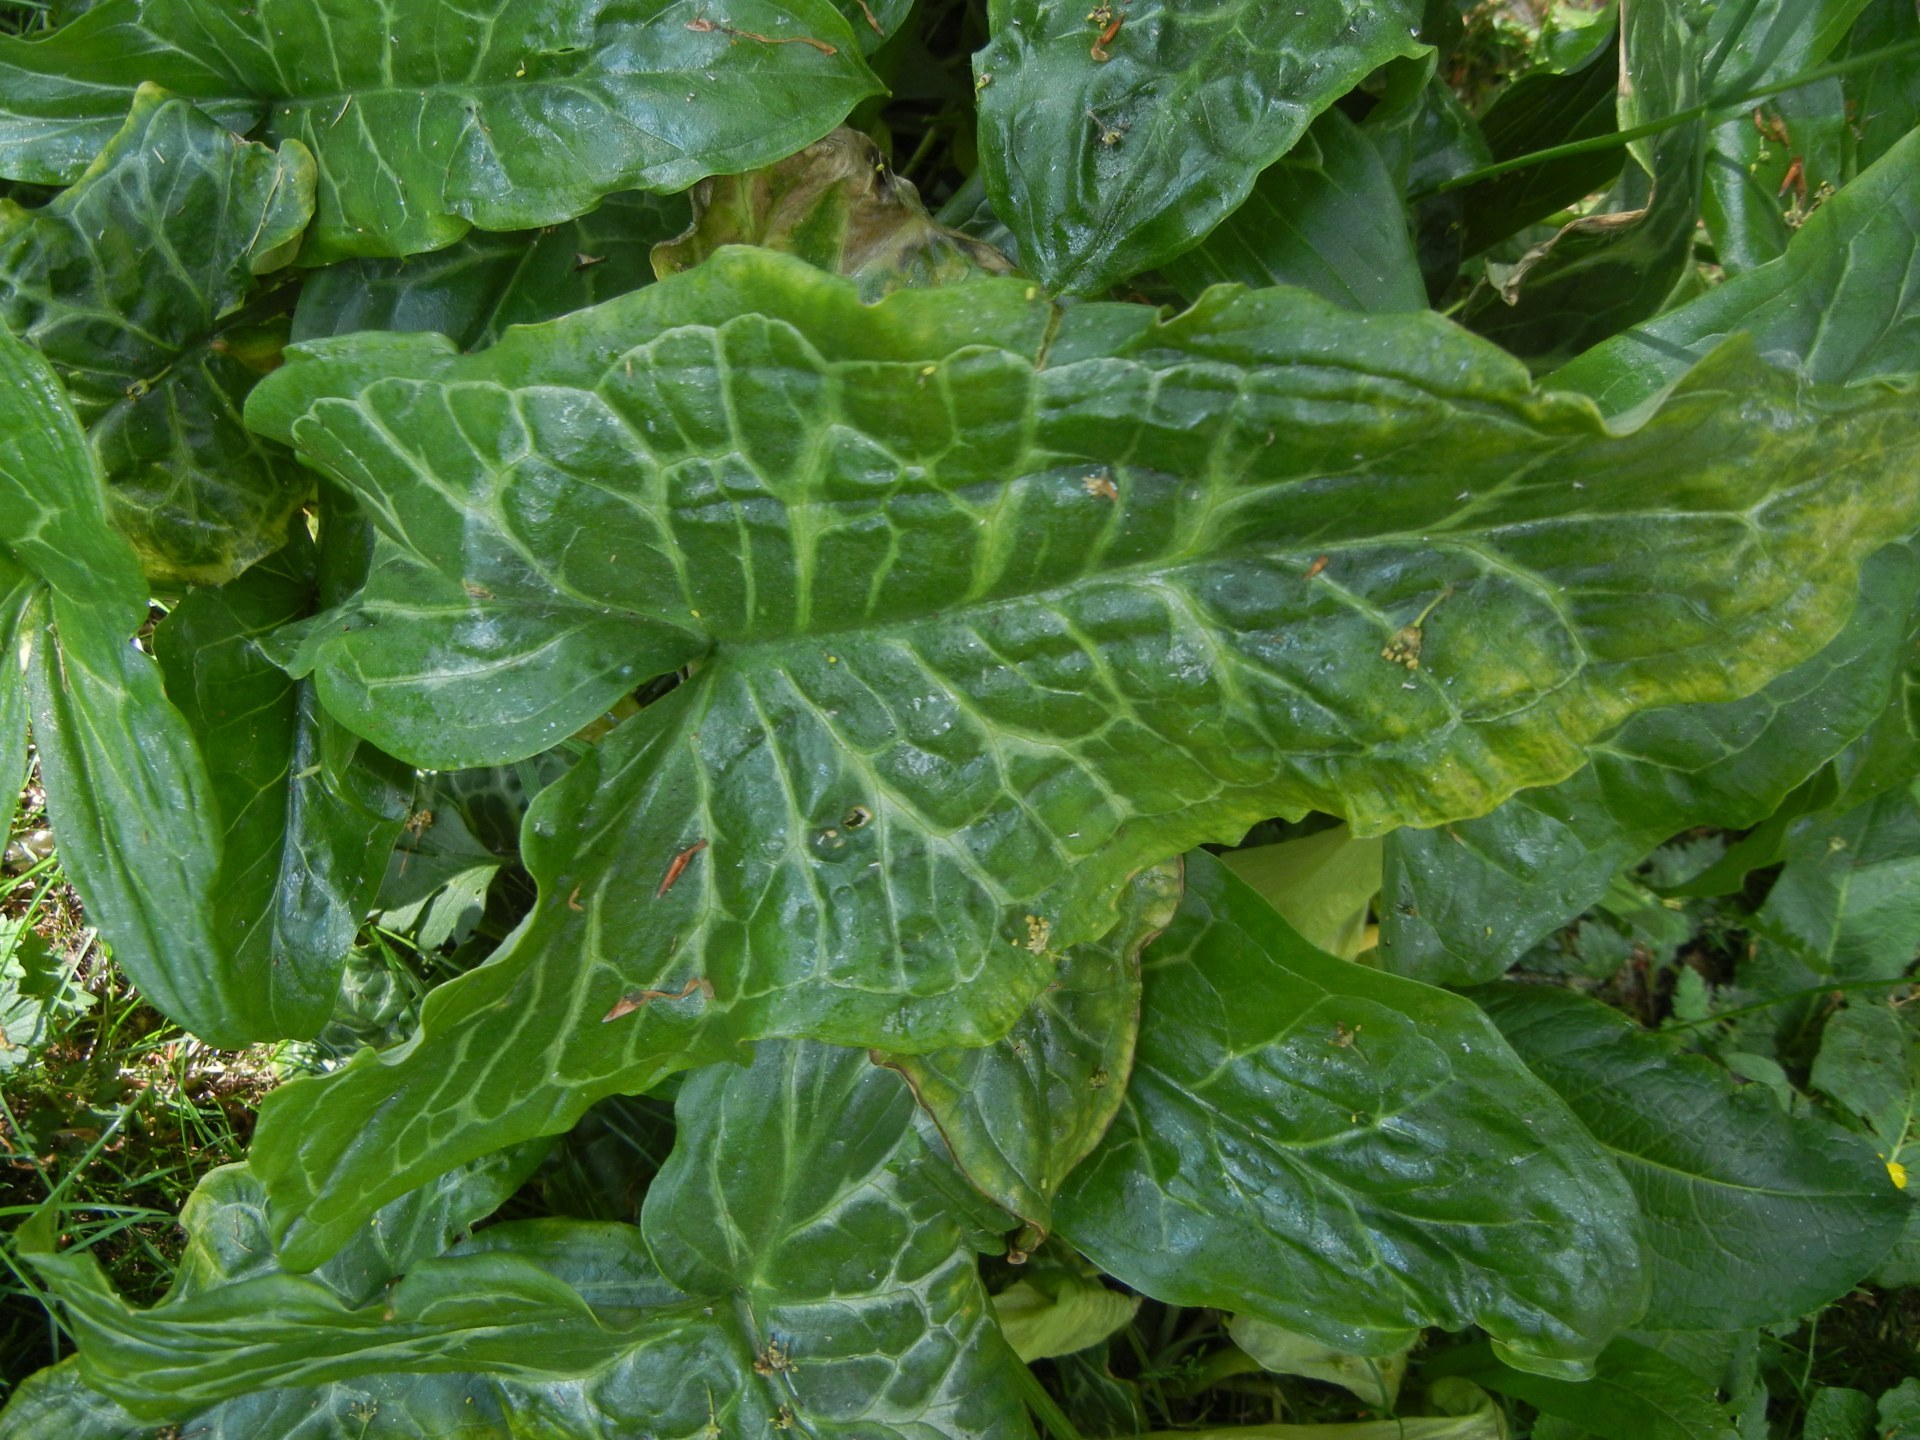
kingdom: Plantae
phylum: Tracheophyta
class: Liliopsida
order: Alismatales
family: Araceae
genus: Arum
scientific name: Arum italicum
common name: Italian lords-and-ladies
